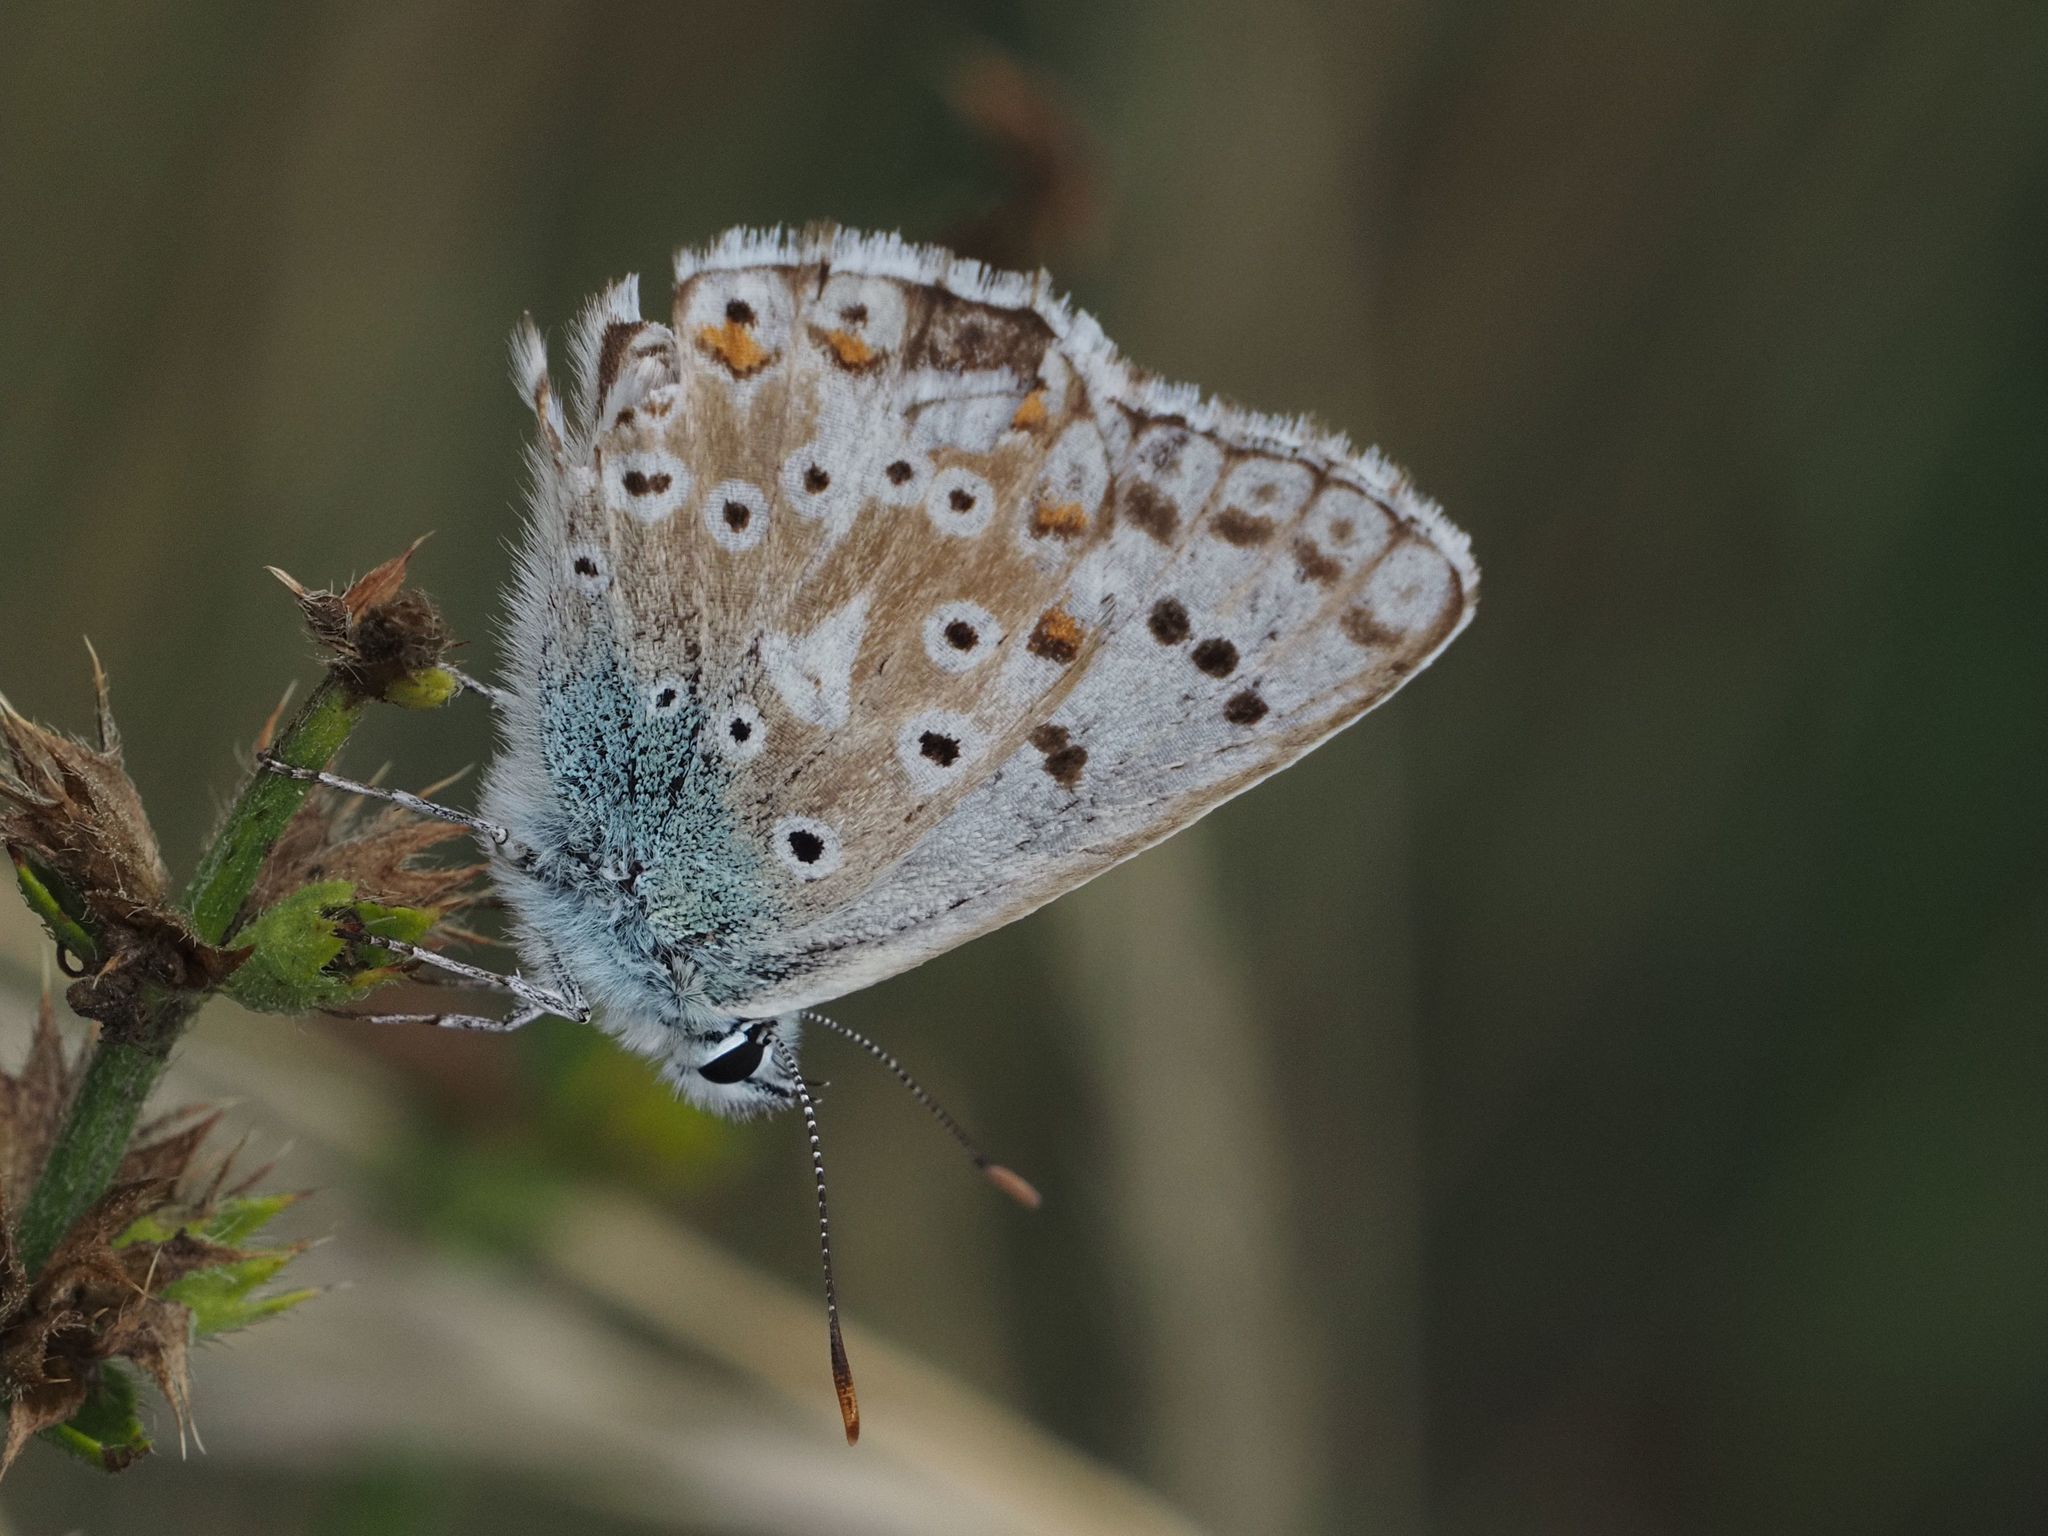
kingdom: Animalia
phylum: Arthropoda
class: Insecta
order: Lepidoptera
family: Lycaenidae
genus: Lysandra
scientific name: Lysandra coridon
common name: Chalkhill blue
